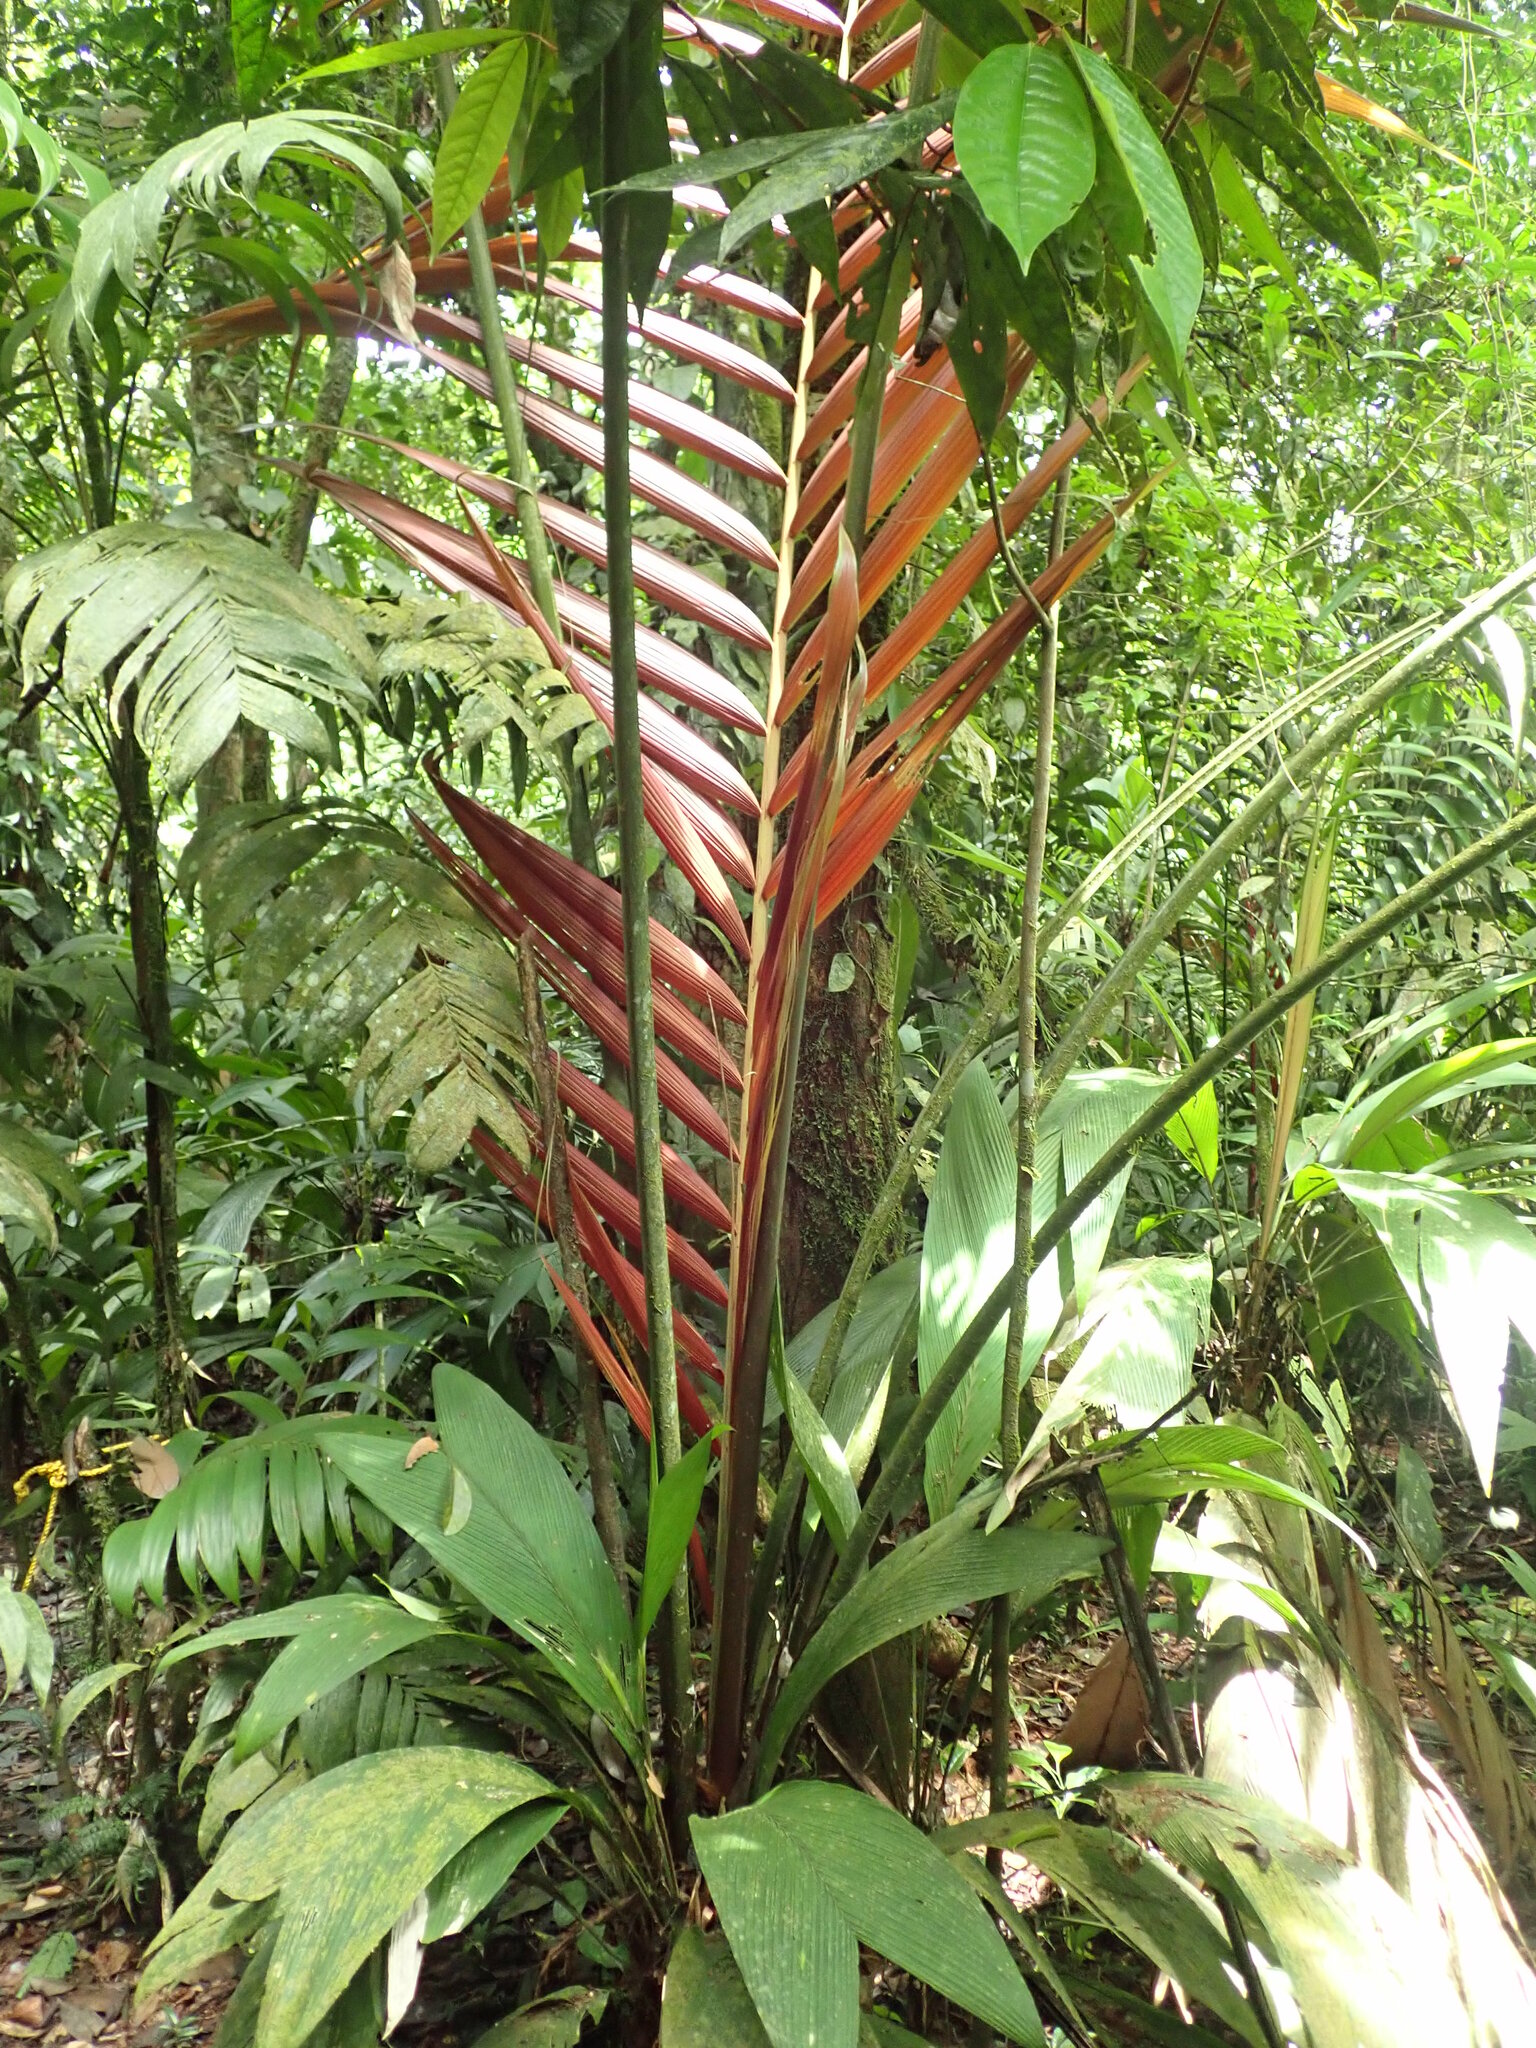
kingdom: Plantae
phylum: Tracheophyta
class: Liliopsida
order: Arecales
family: Arecaceae
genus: Welfia
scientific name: Welfia regia
